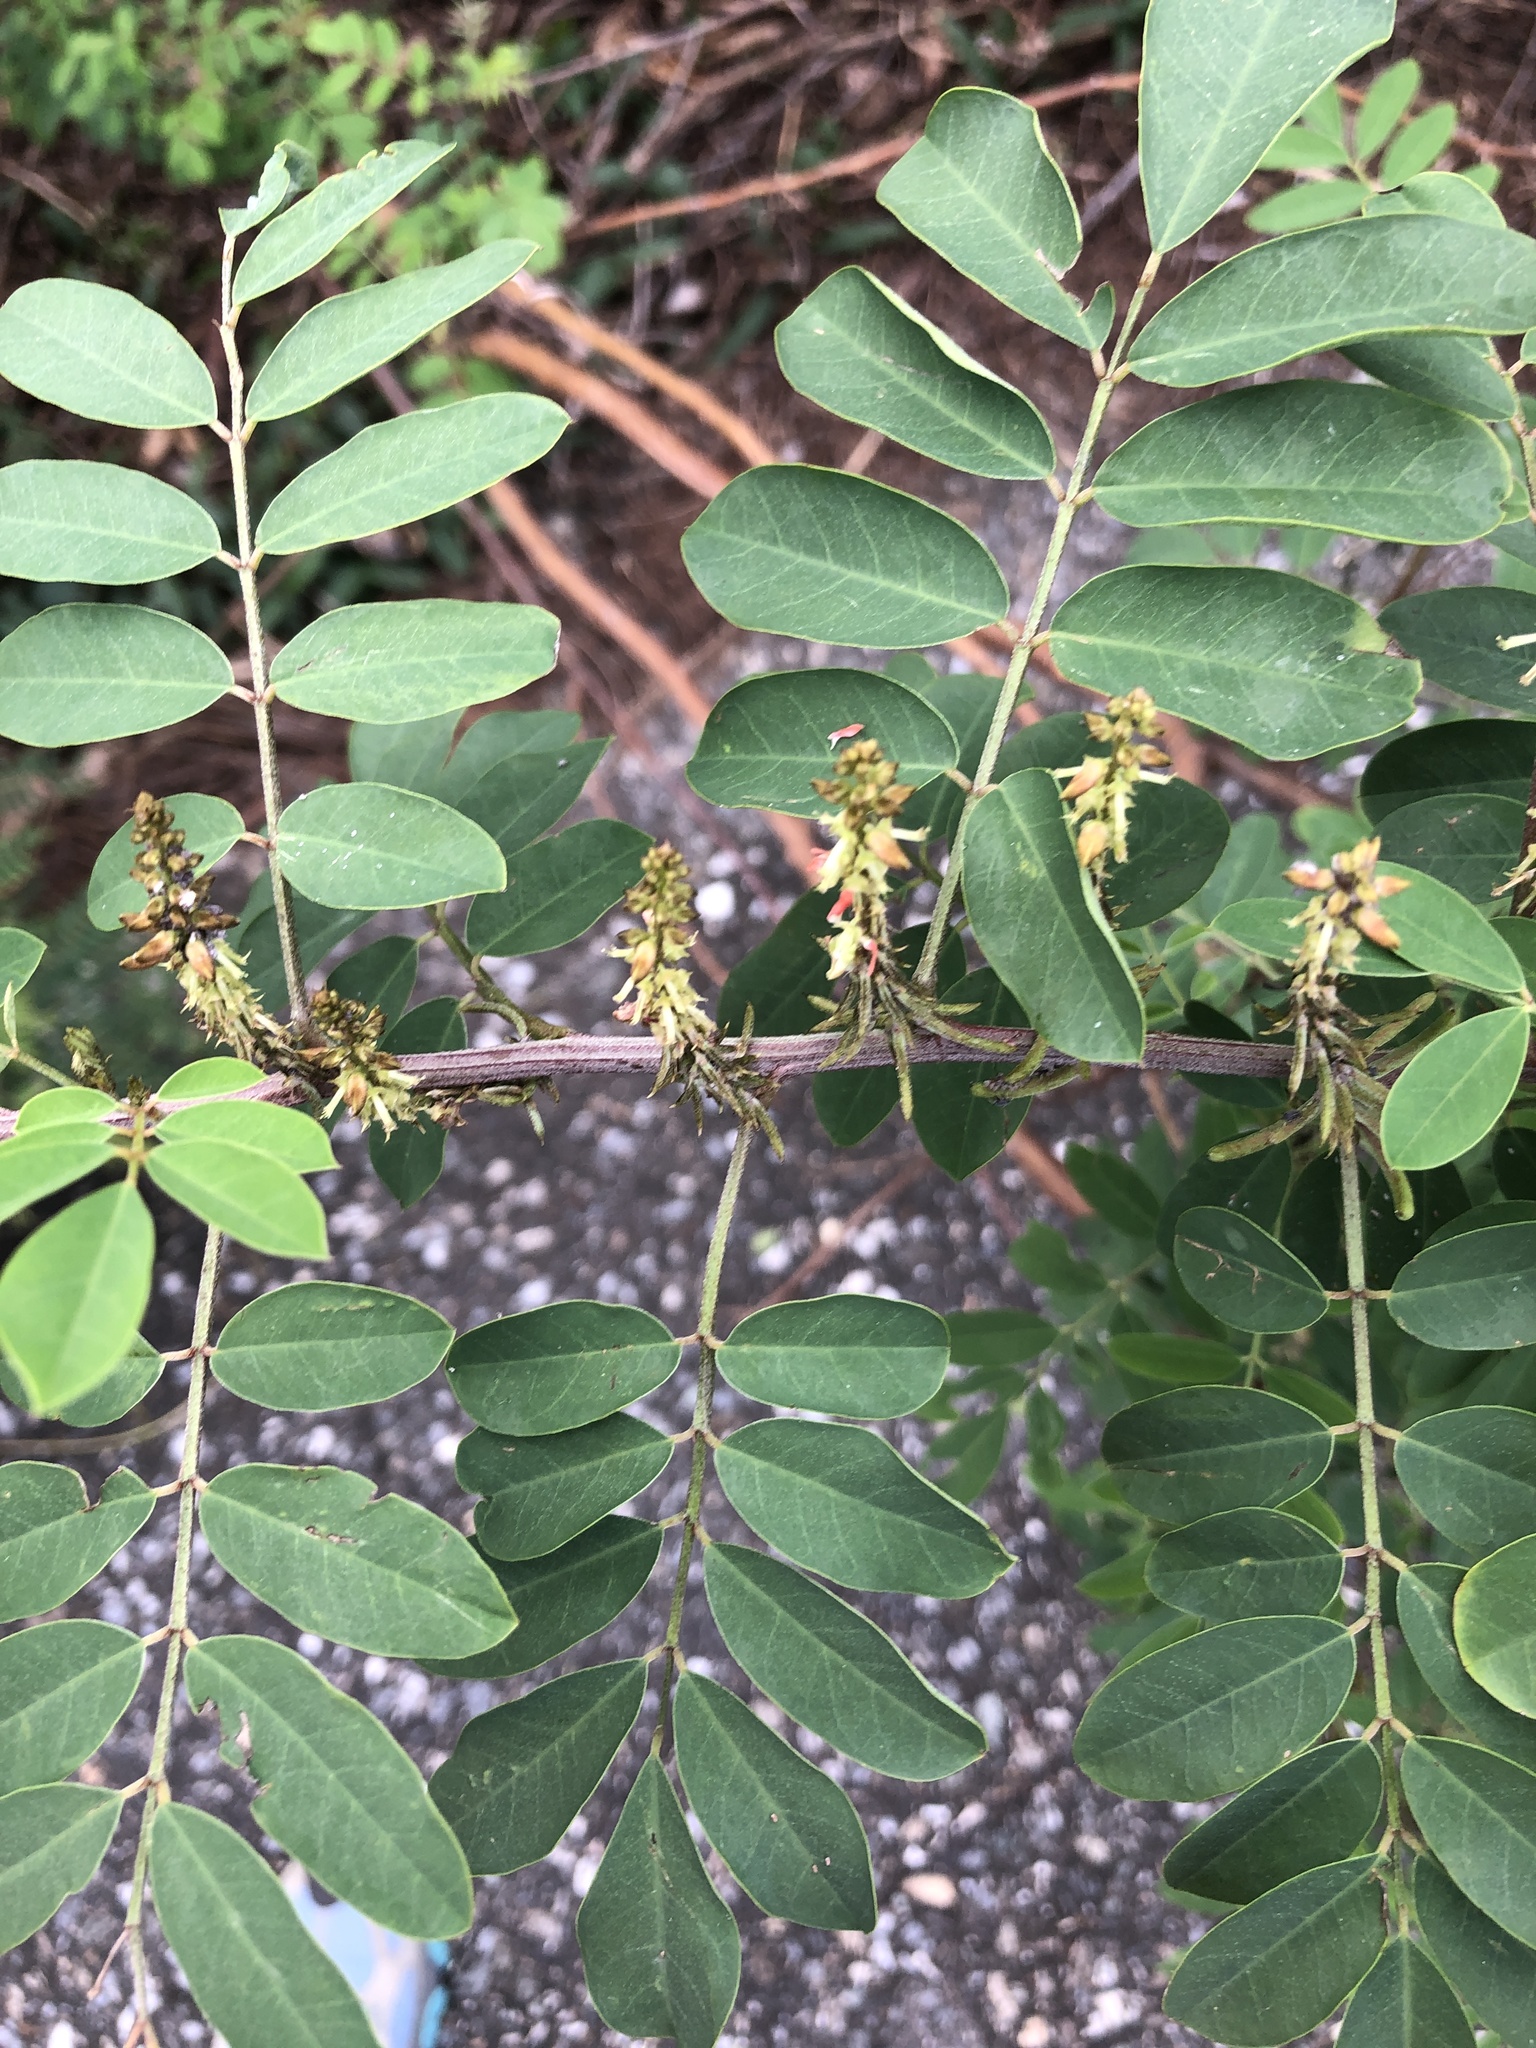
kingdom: Plantae
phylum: Tracheophyta
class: Magnoliopsida
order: Fabales
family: Fabaceae
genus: Indigofera
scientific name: Indigofera suffruticosa
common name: Anil de pasto
